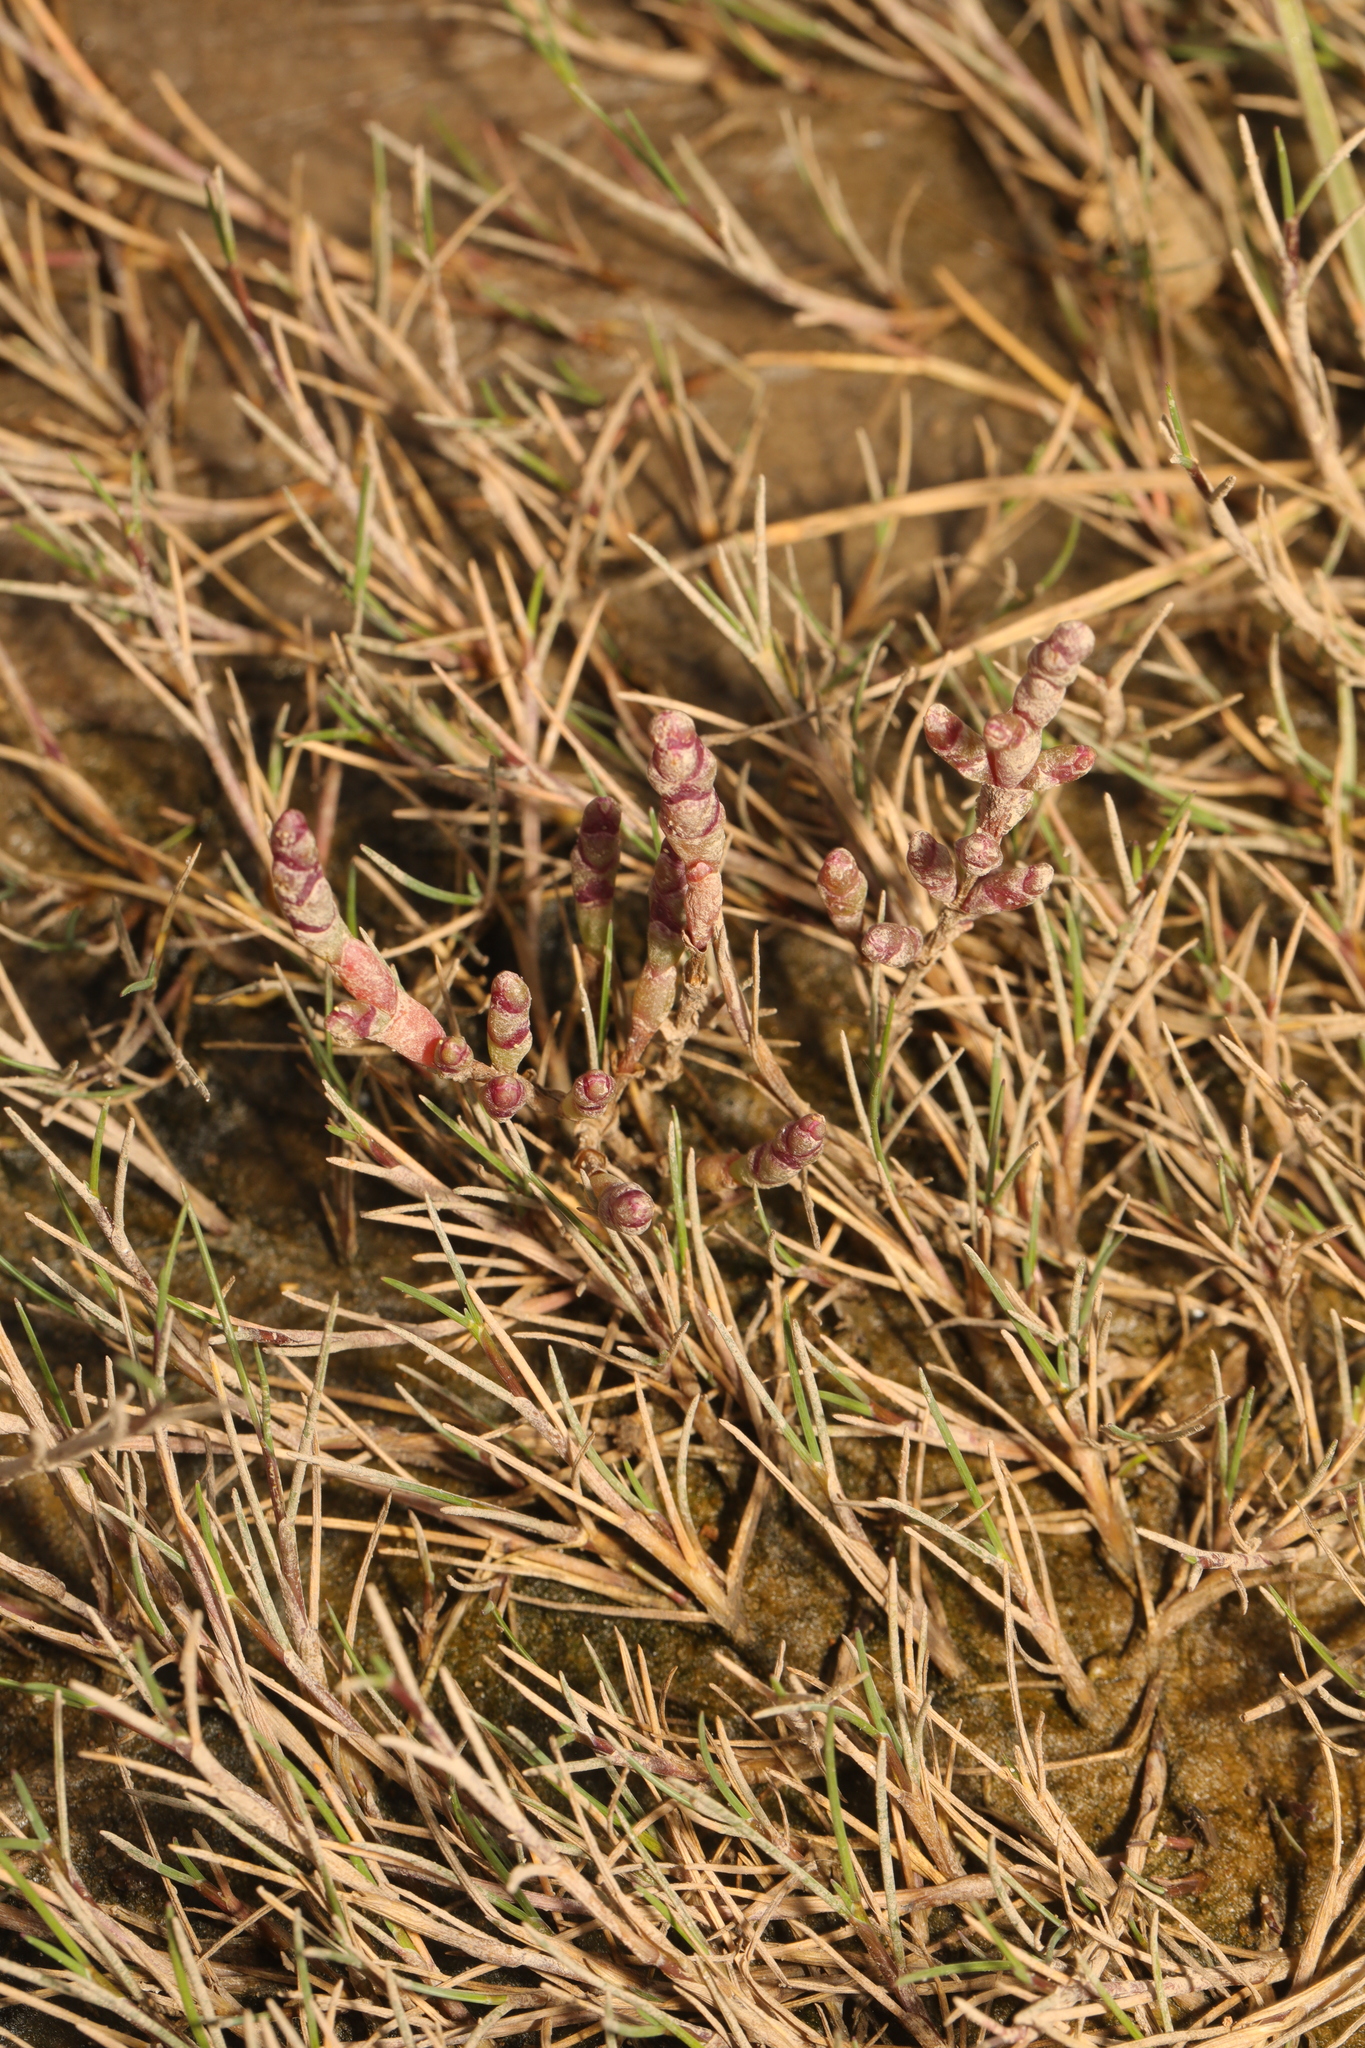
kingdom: Plantae
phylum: Tracheophyta
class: Magnoliopsida
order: Caryophyllales
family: Amaranthaceae
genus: Salicornia
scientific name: Salicornia europaea
